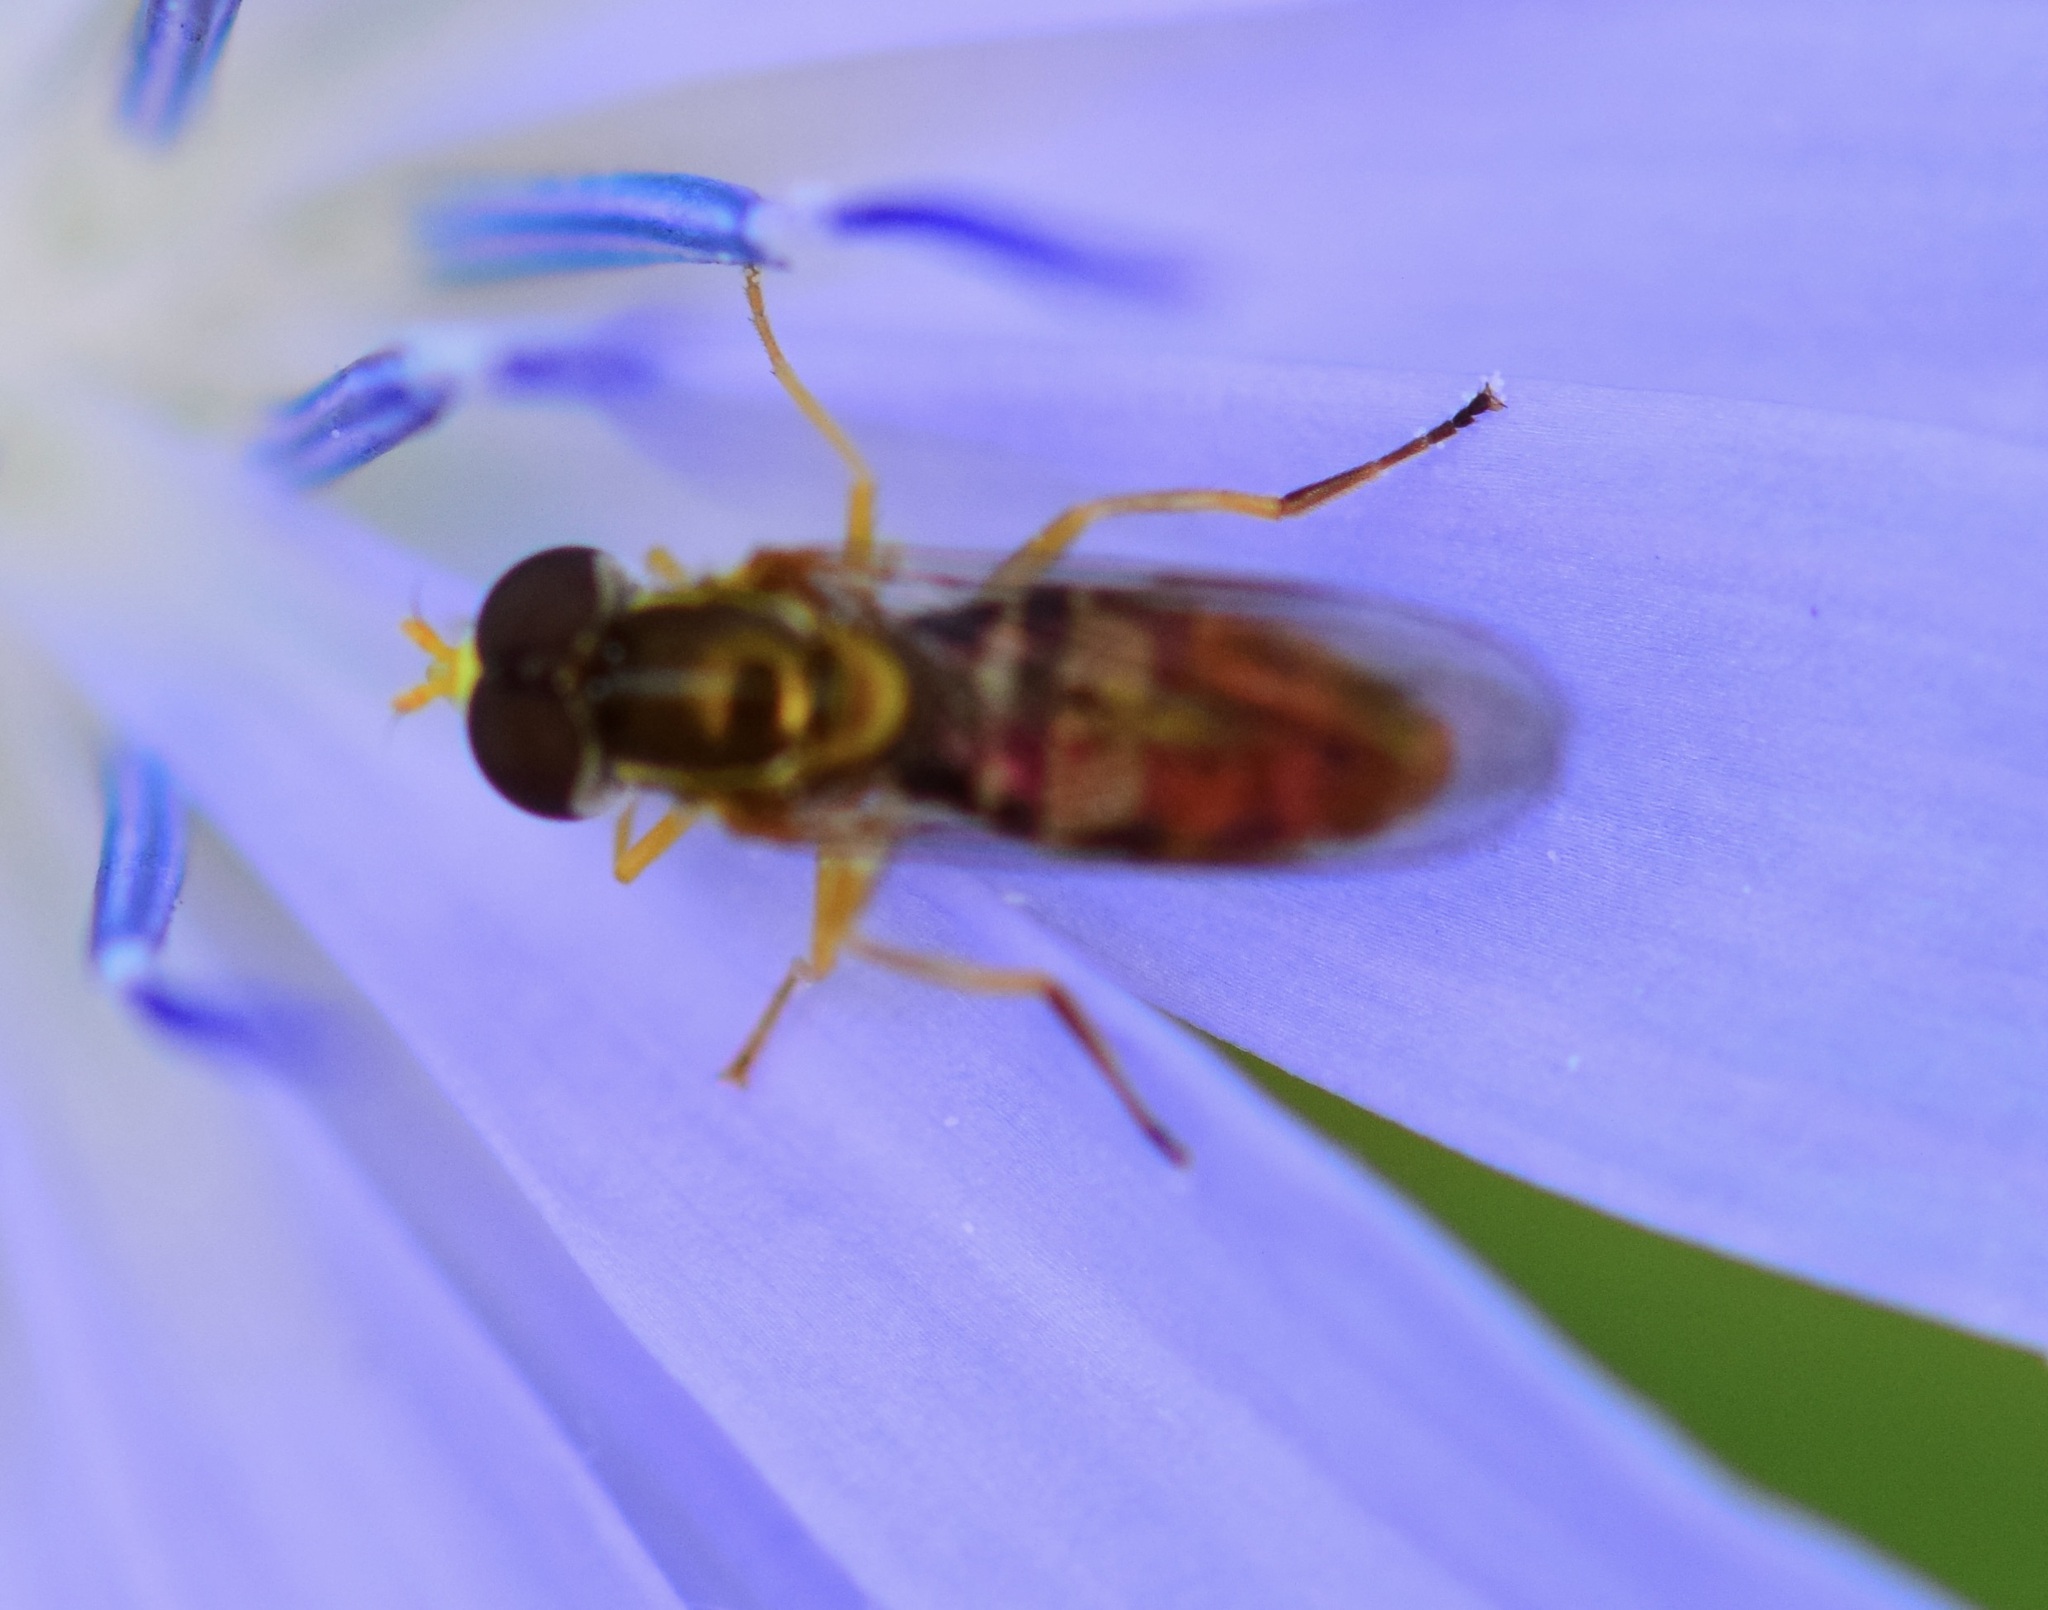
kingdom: Animalia
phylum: Arthropoda
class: Insecta
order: Diptera
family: Syrphidae
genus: Toxomerus
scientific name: Toxomerus marginatus
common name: Syrphid fly
